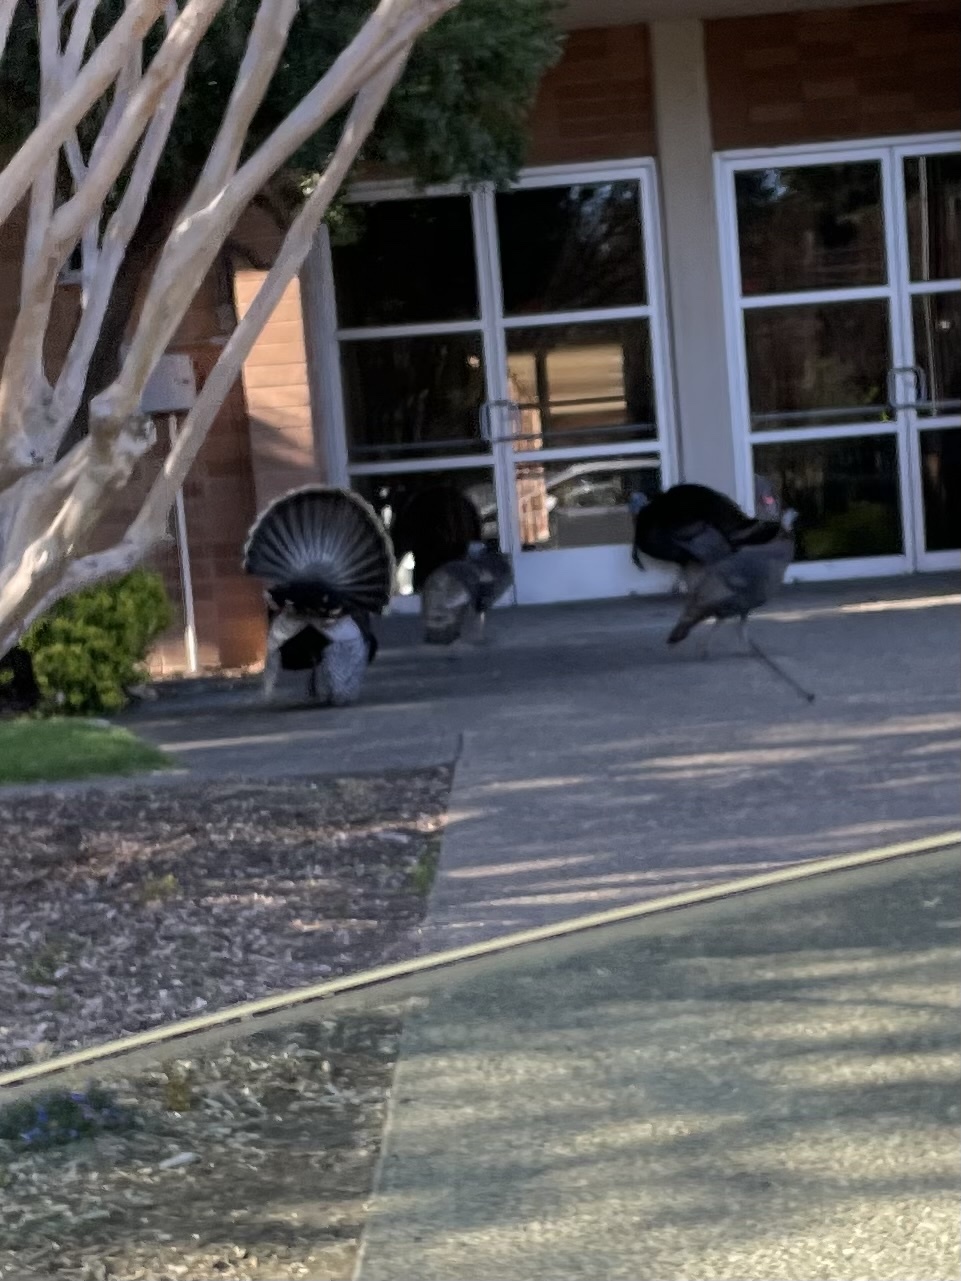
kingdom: Animalia
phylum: Chordata
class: Aves
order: Galliformes
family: Phasianidae
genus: Meleagris
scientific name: Meleagris gallopavo
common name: Wild turkey
